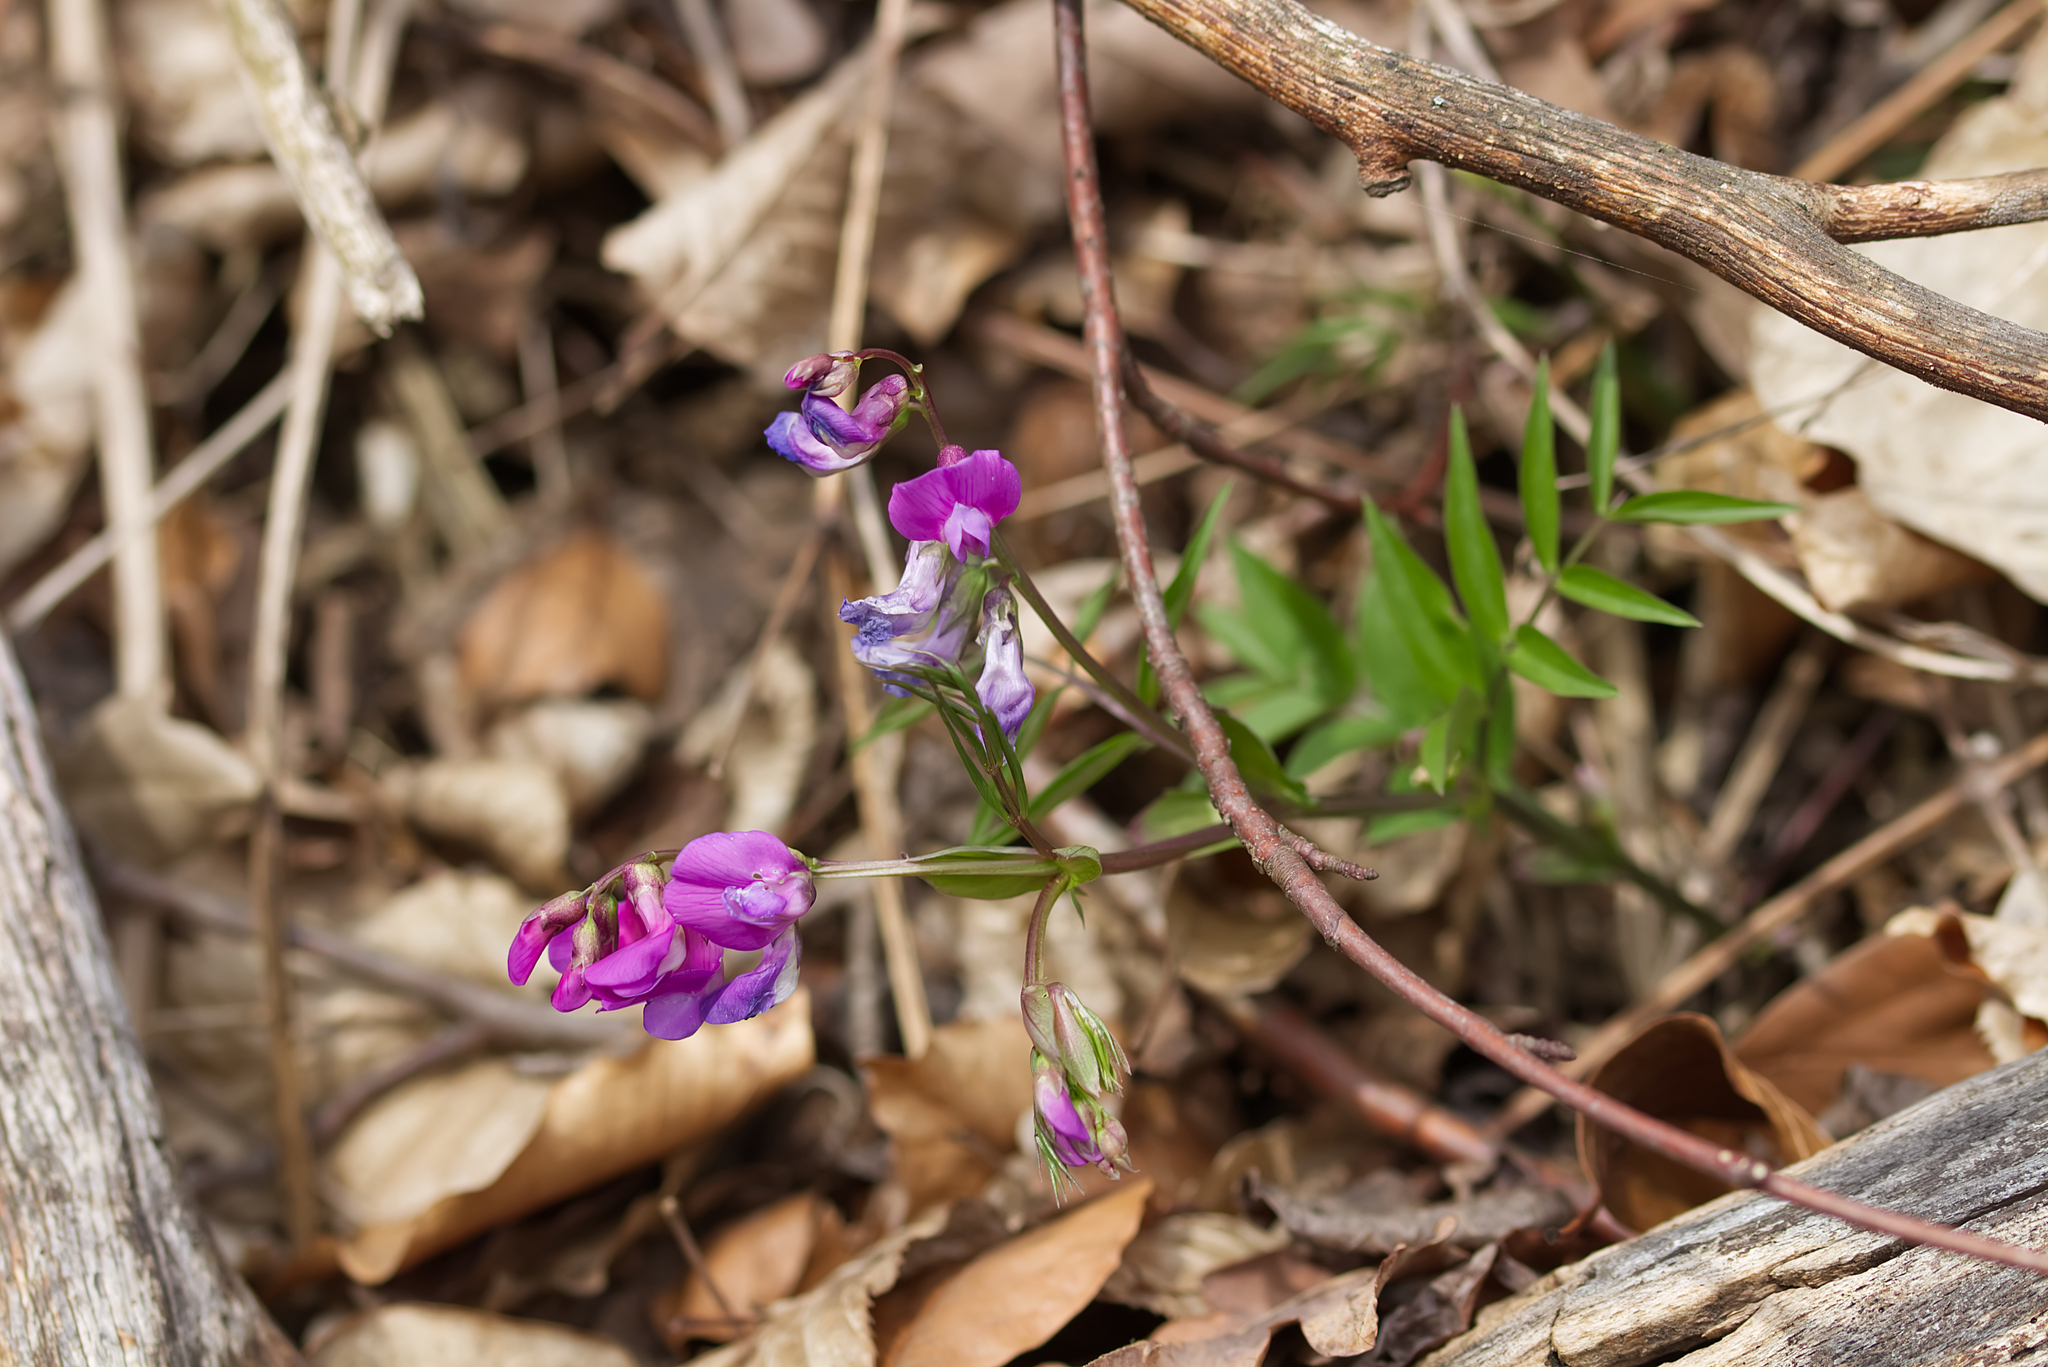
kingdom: Plantae
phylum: Tracheophyta
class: Magnoliopsida
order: Fabales
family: Fabaceae
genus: Lathyrus
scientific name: Lathyrus vernus
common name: Spring pea
